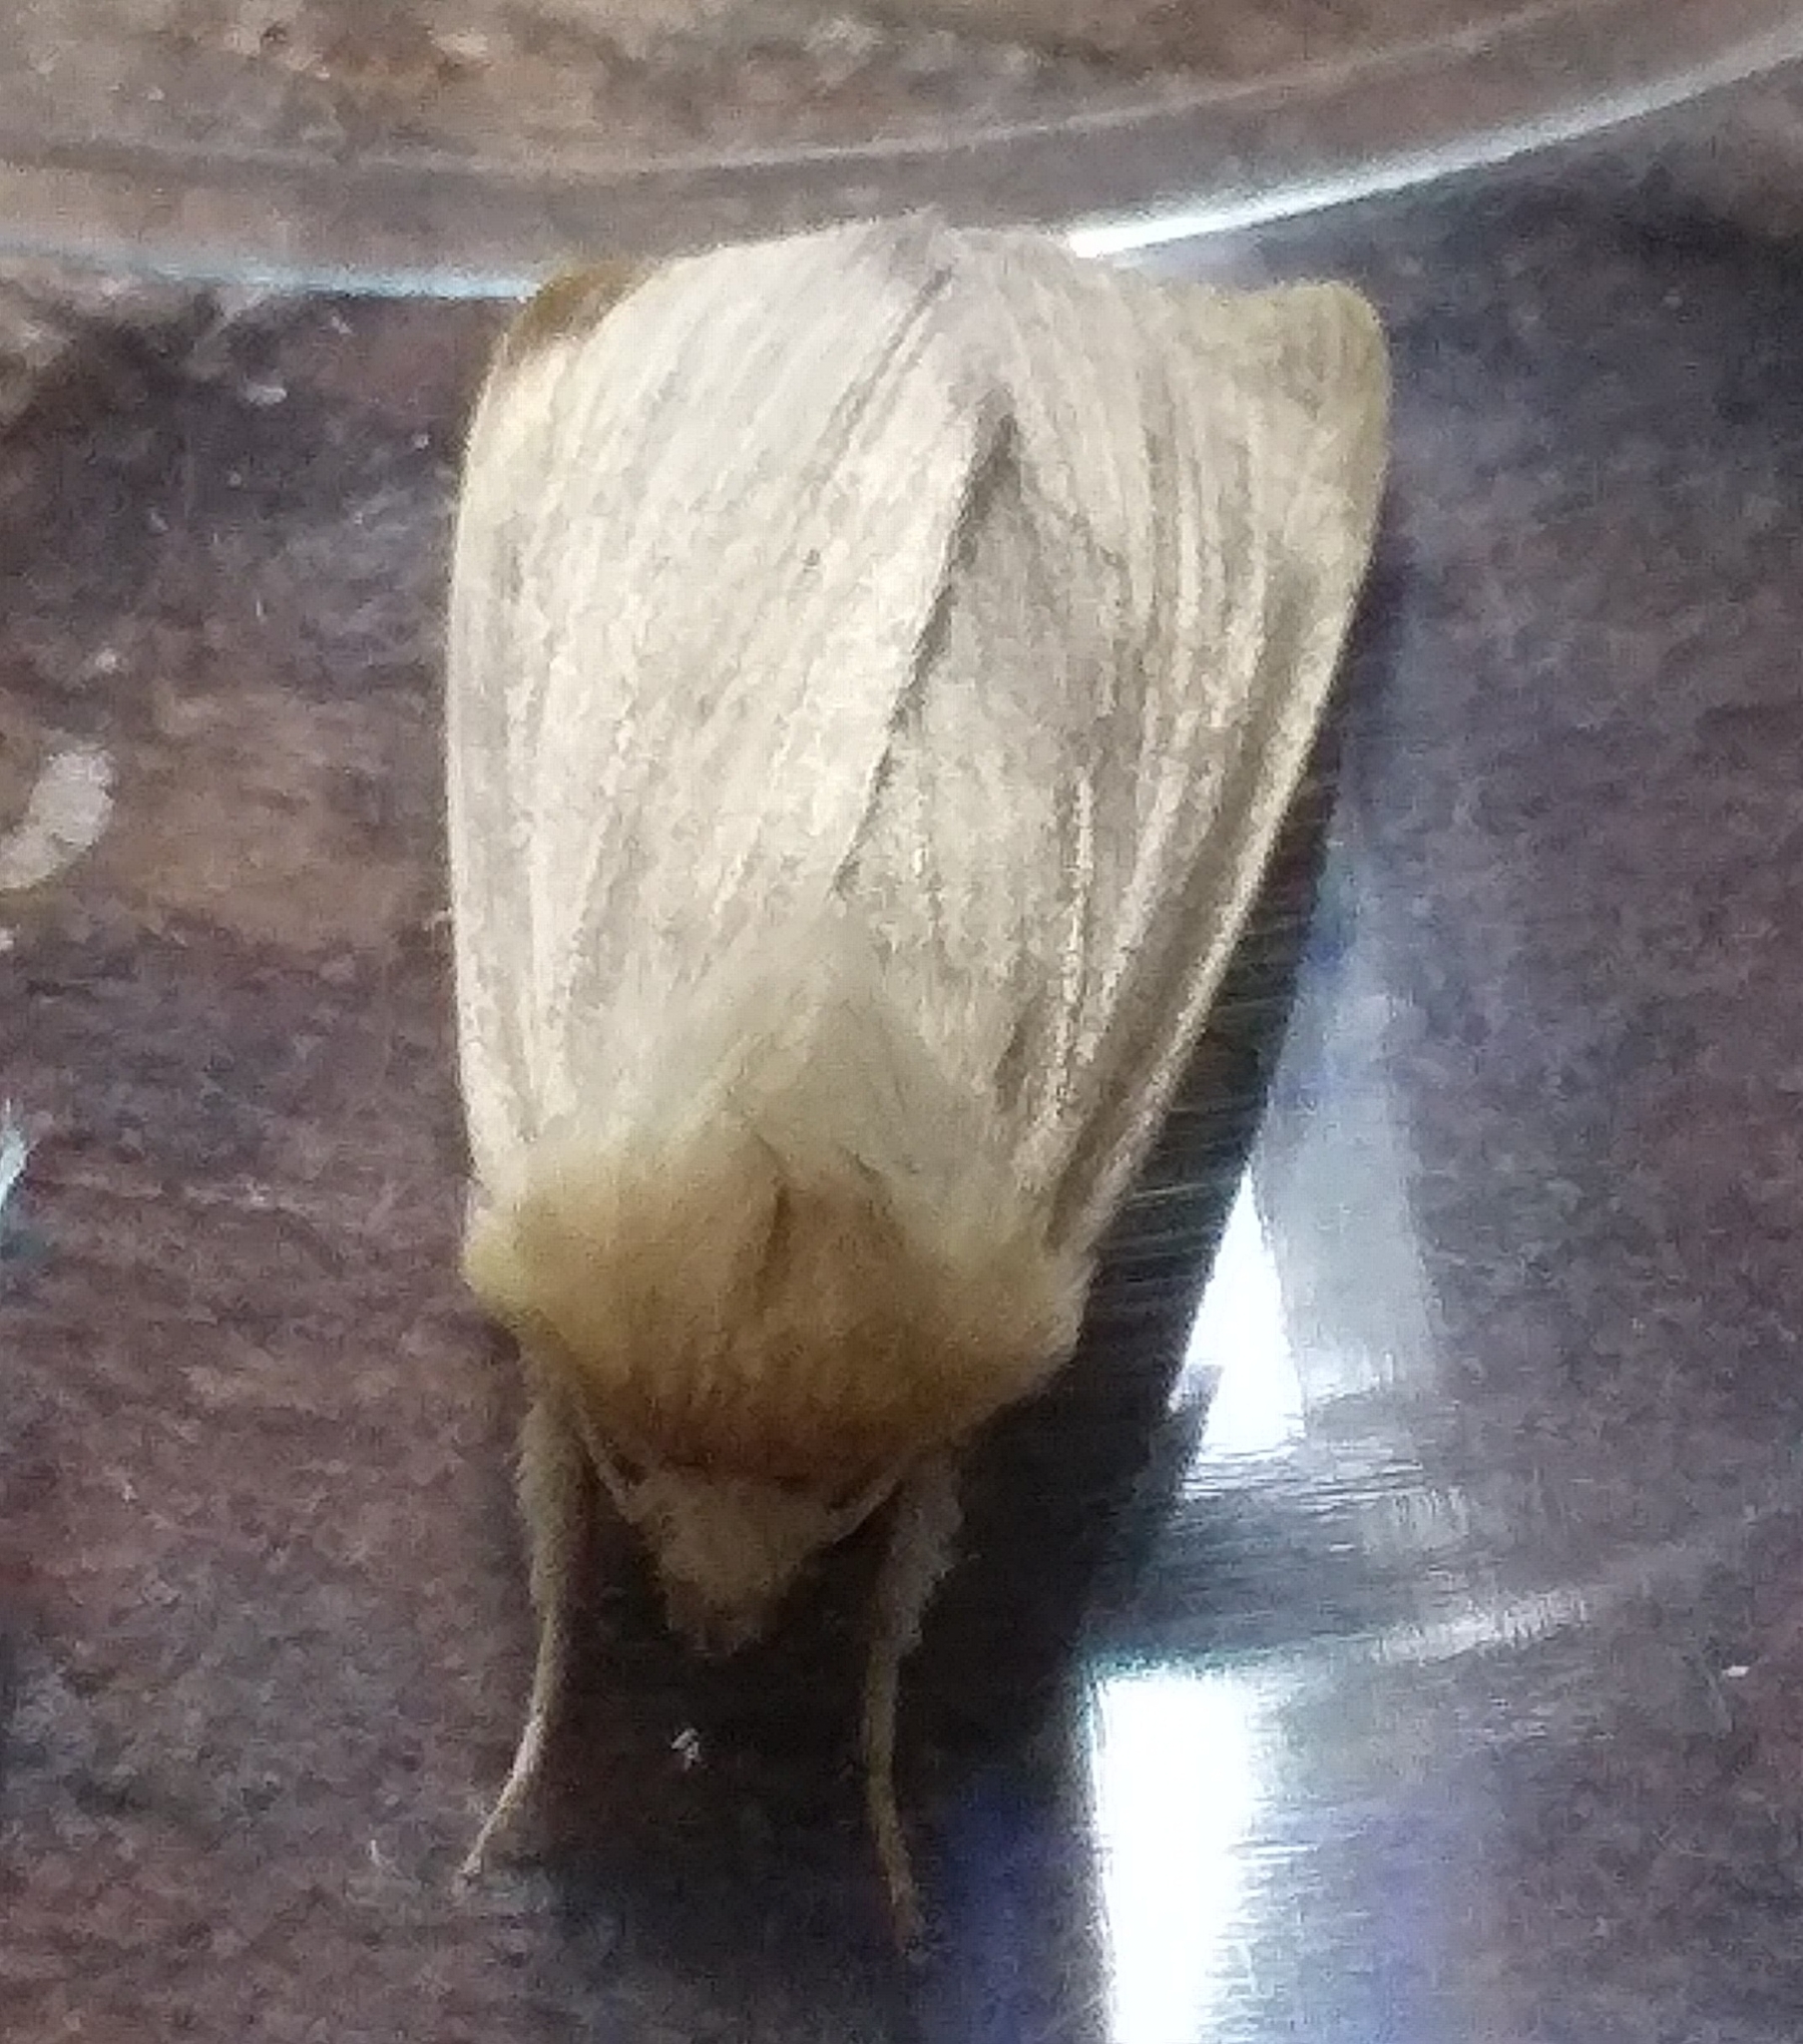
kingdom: Animalia
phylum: Arthropoda
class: Insecta
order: Lepidoptera
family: Noctuidae
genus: Mythimna
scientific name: Mythimna
